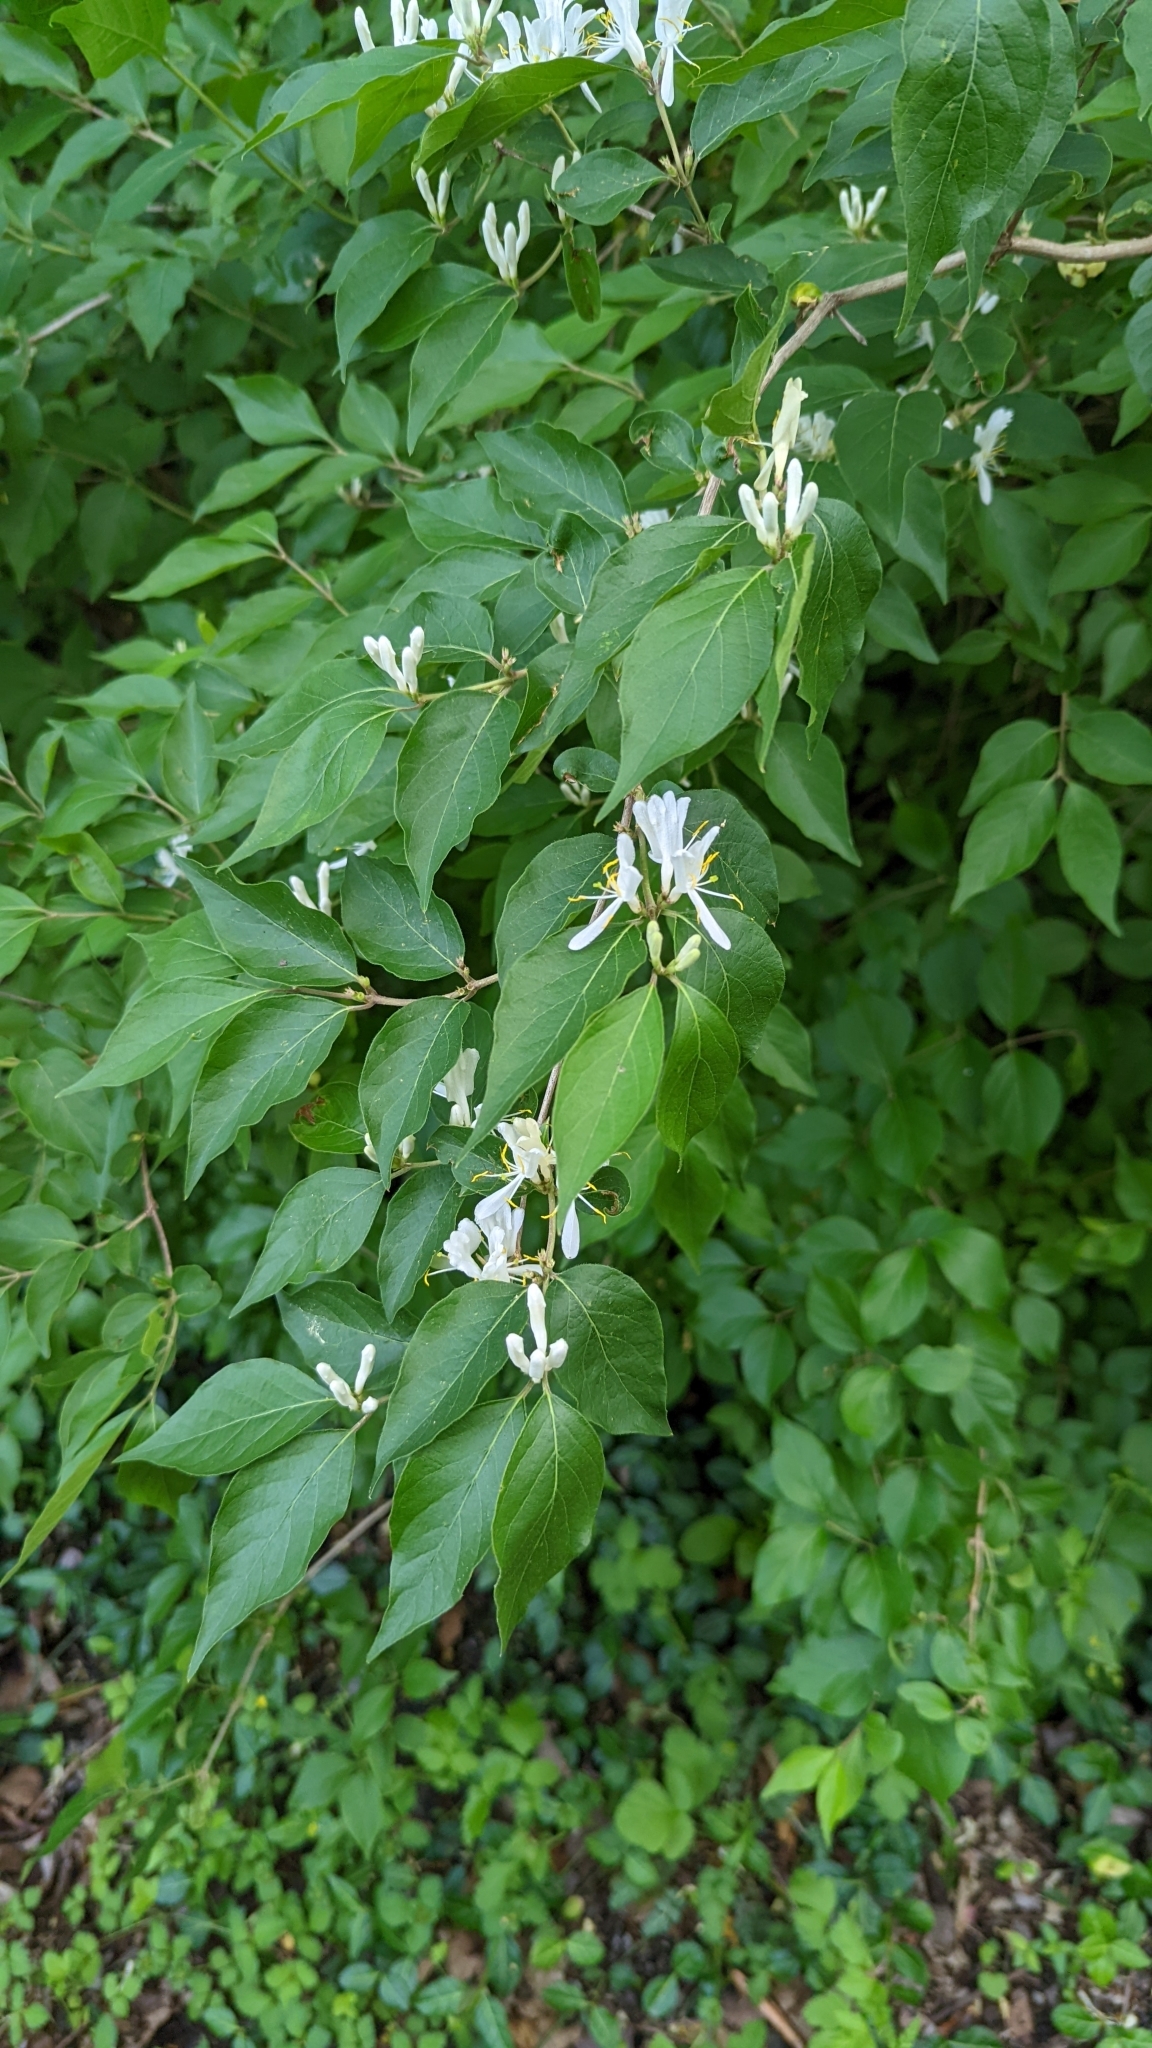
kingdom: Plantae
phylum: Tracheophyta
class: Magnoliopsida
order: Dipsacales
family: Caprifoliaceae
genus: Lonicera
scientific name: Lonicera maackii
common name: Amur honeysuckle
